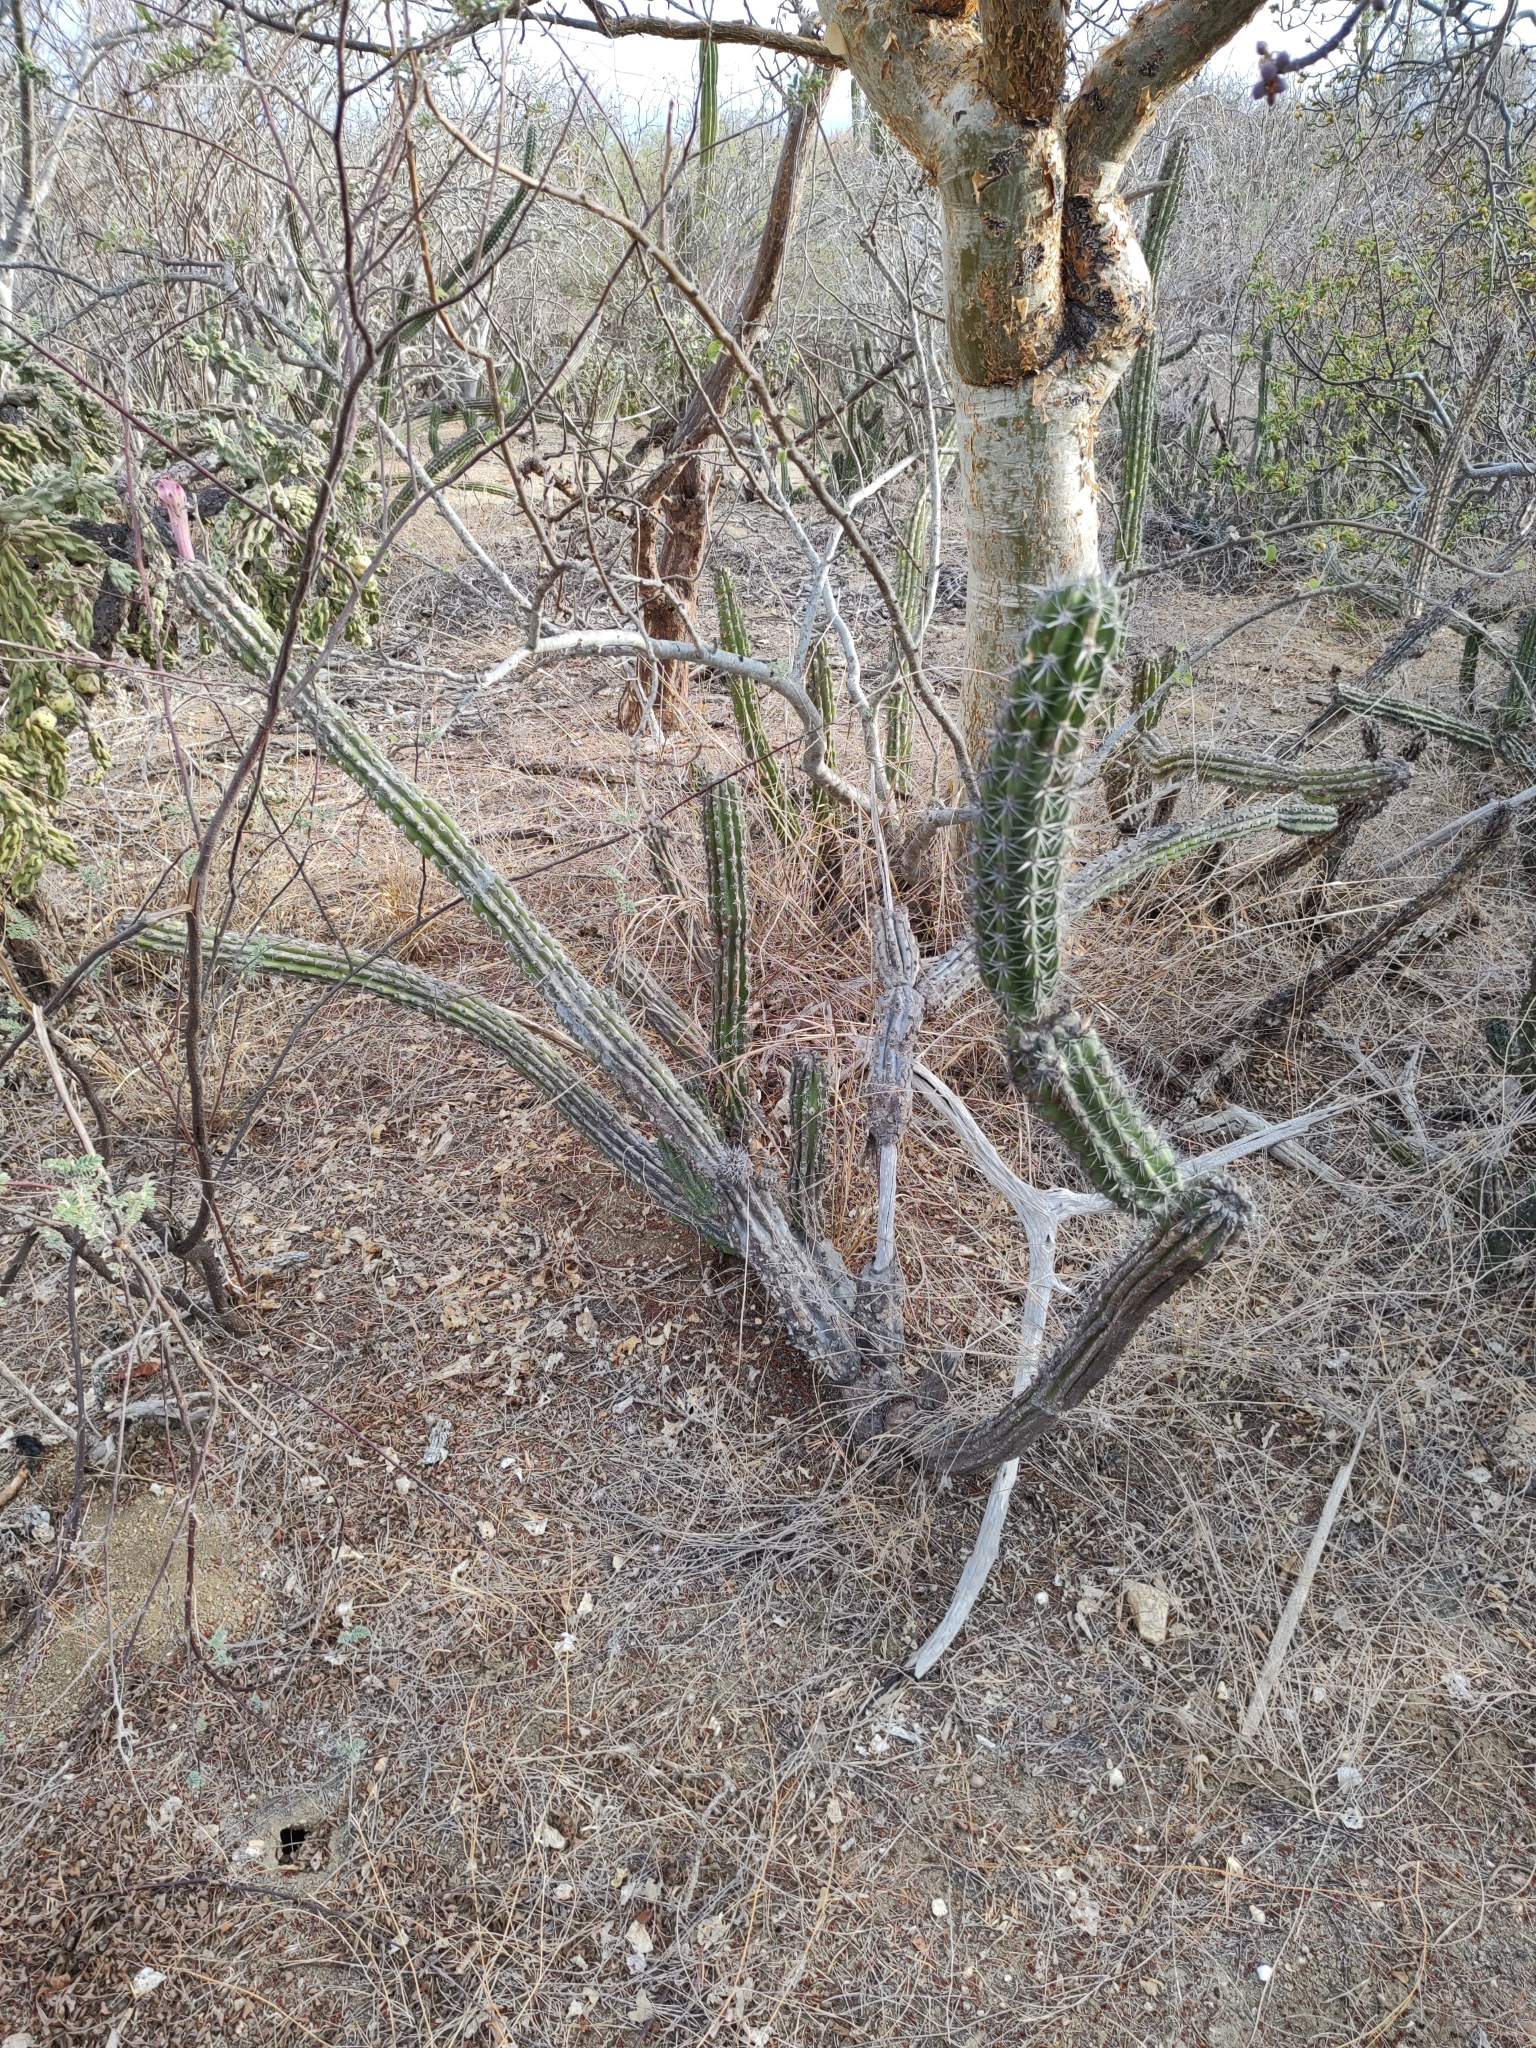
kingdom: Plantae
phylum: Tracheophyta
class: Magnoliopsida
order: Caryophyllales
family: Cactaceae
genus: Stenocereus
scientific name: Stenocereus gummosus
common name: Dagger cactus
